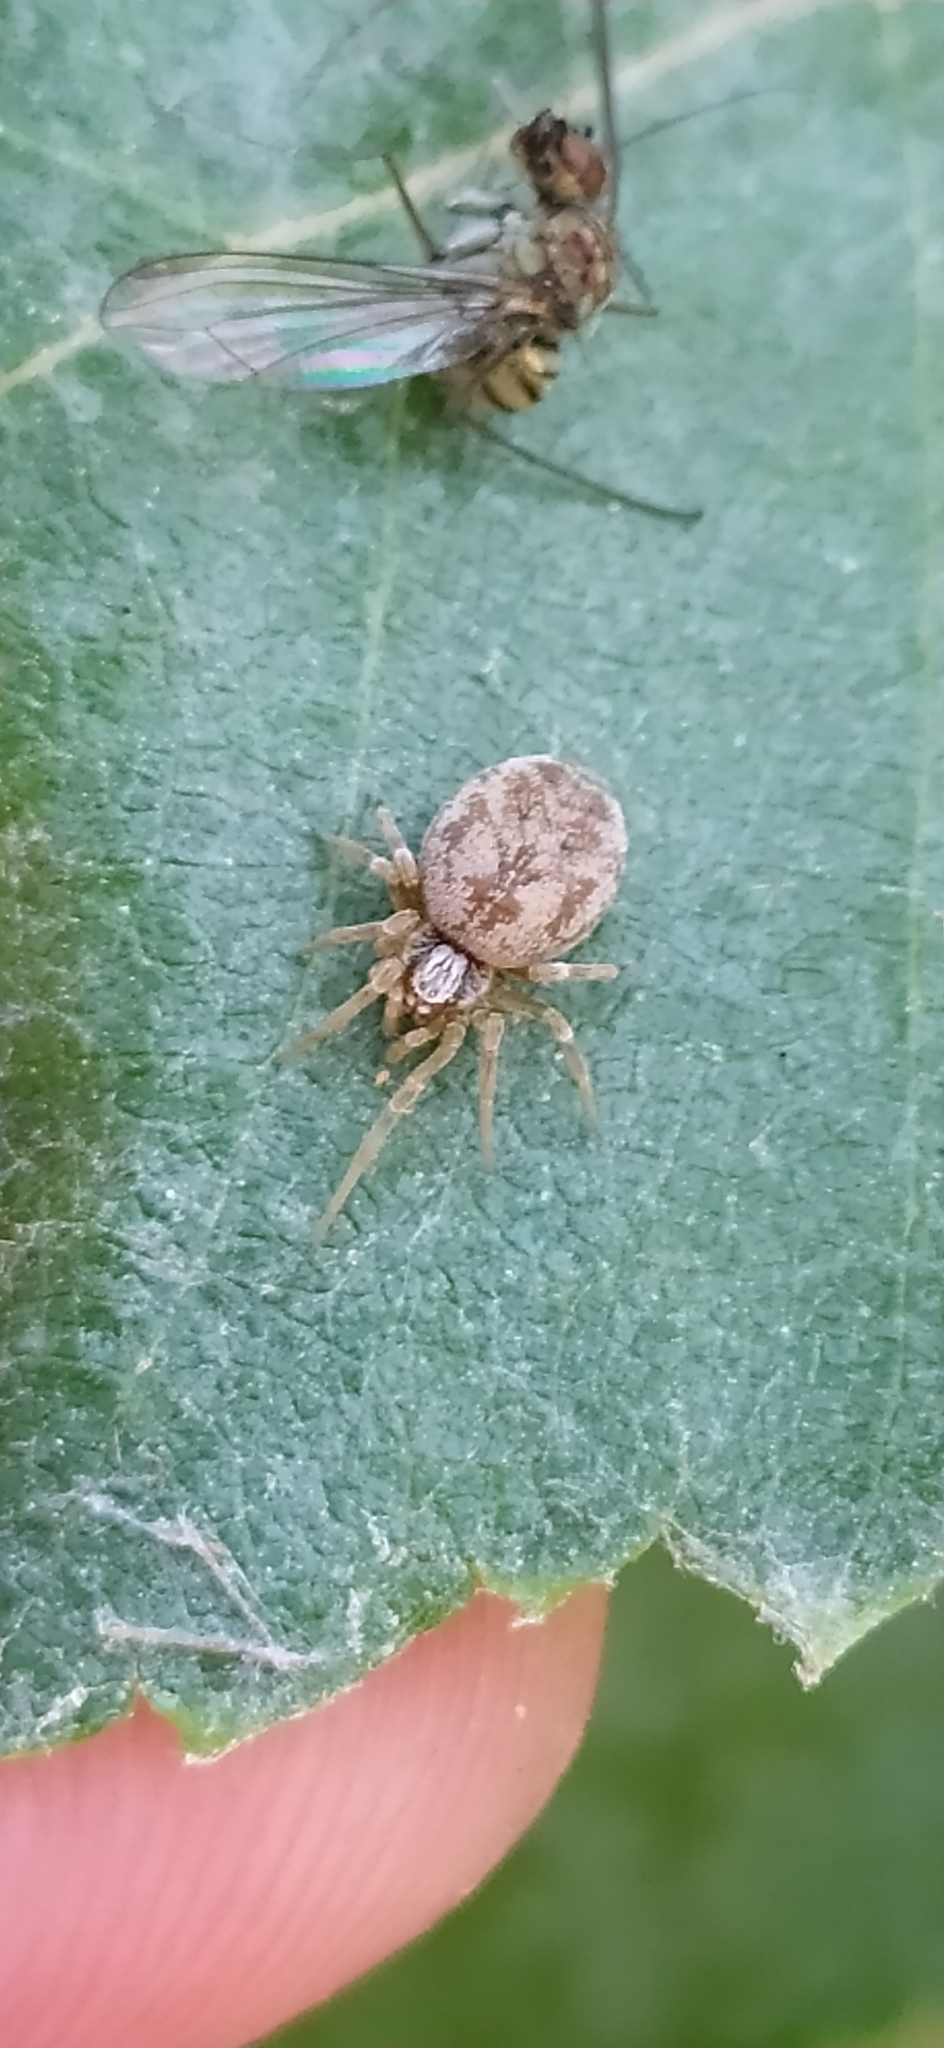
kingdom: Animalia
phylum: Arthropoda
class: Arachnida
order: Araneae
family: Dictynidae
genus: Dictynomorpha
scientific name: Dictynomorpha strandi
